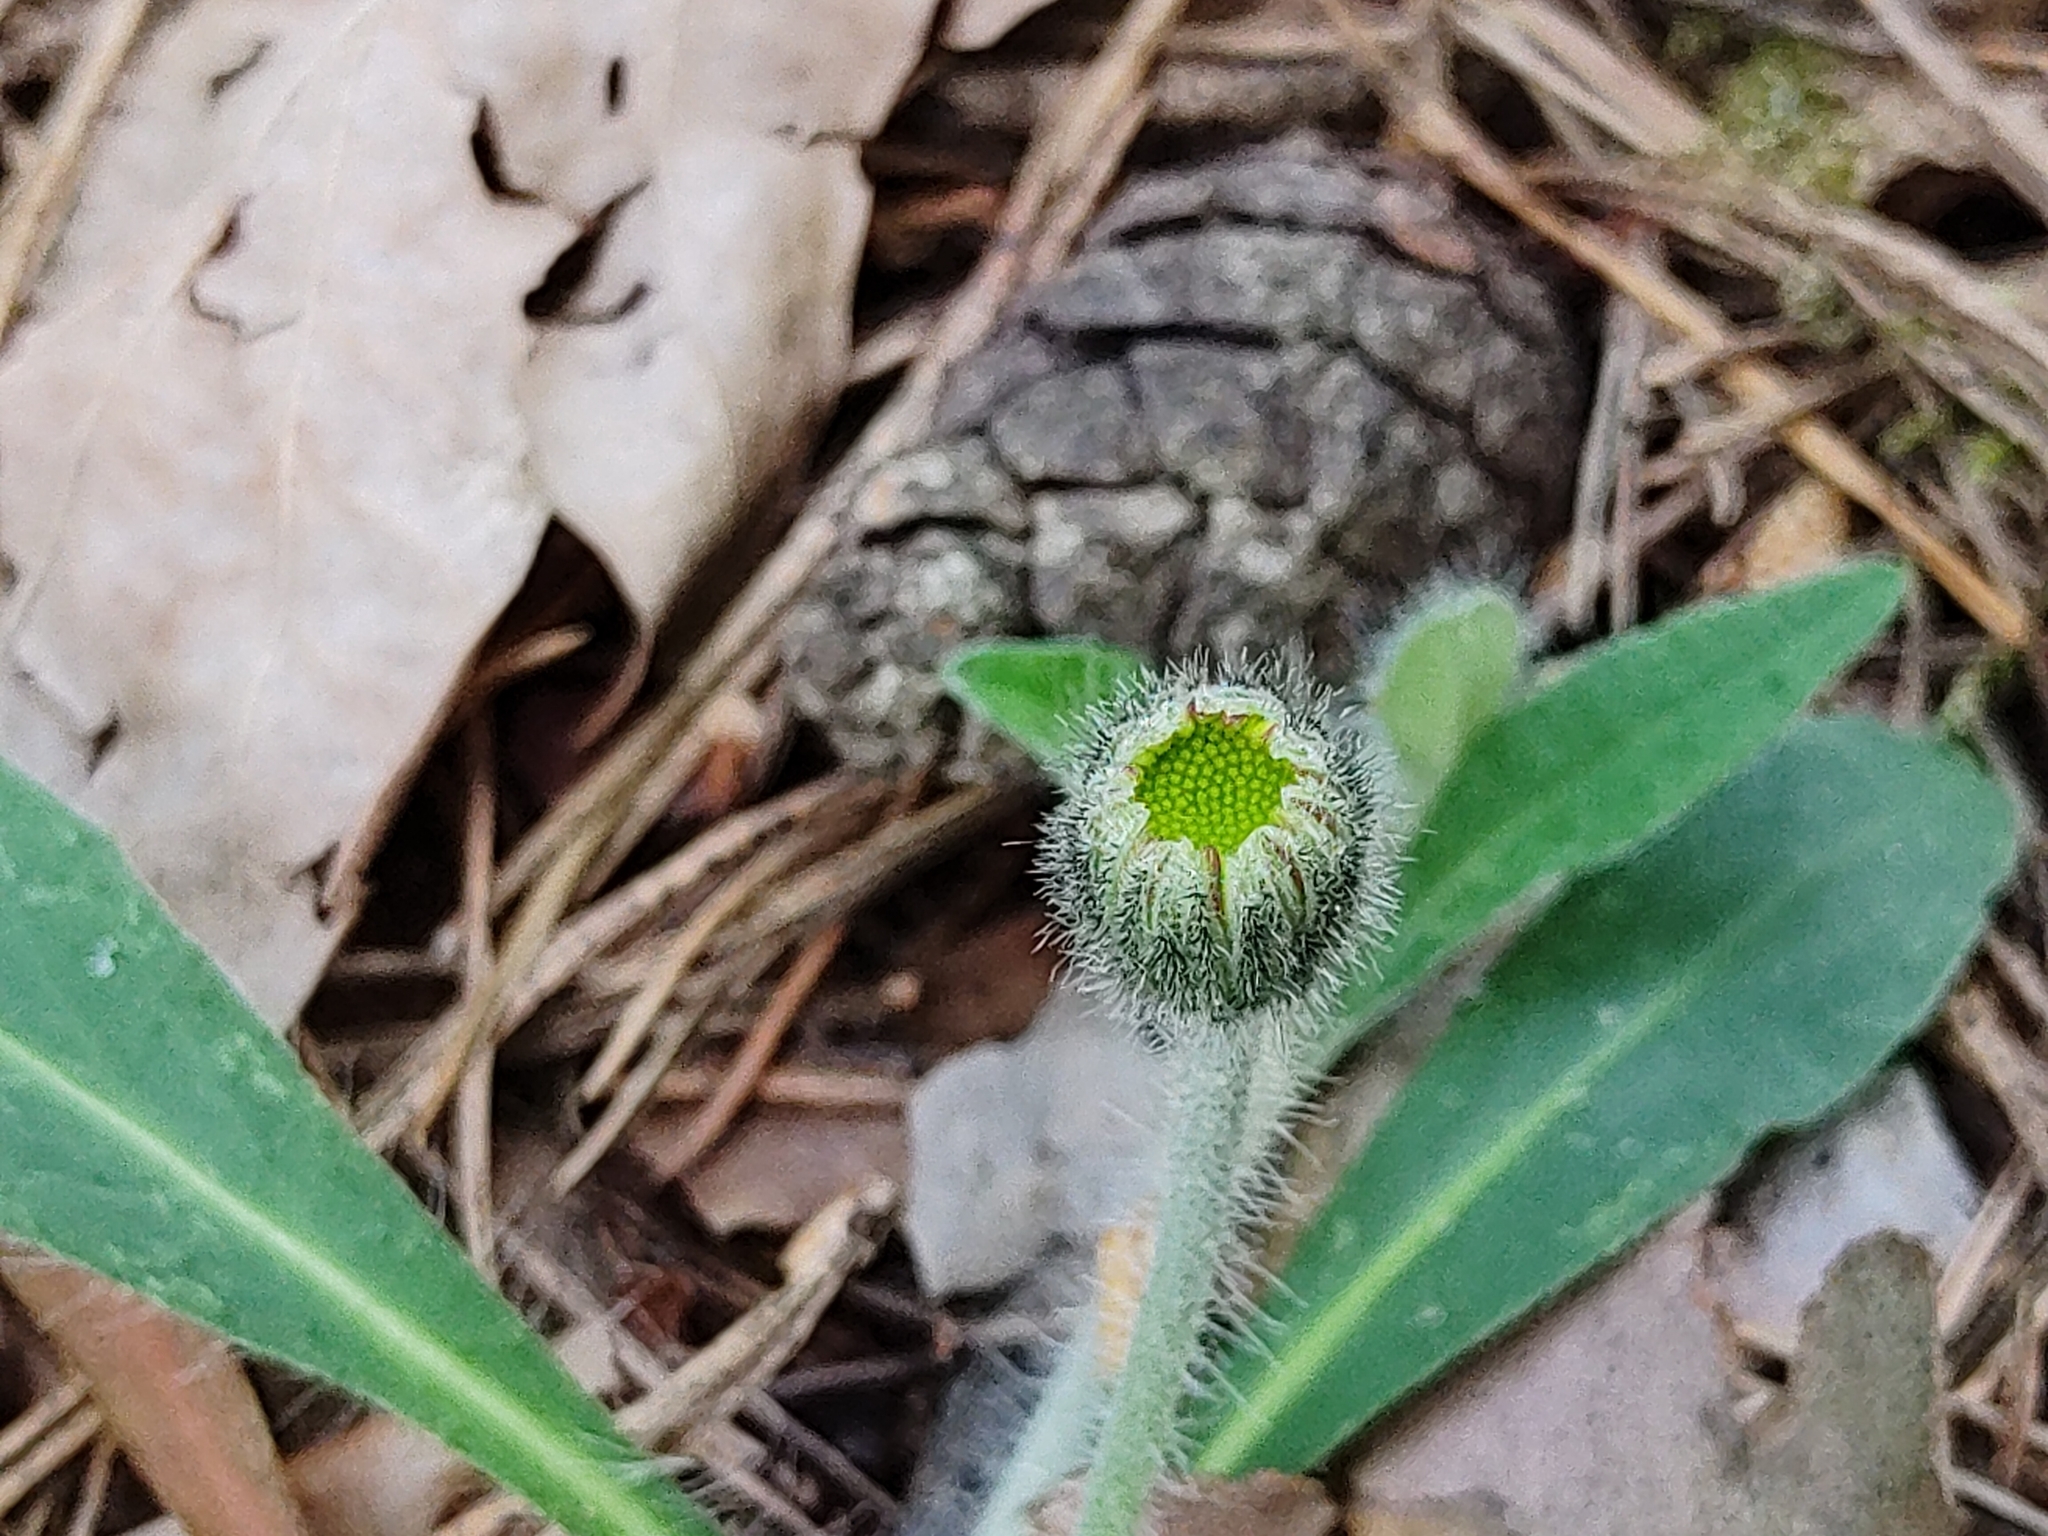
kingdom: Plantae
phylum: Tracheophyta
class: Magnoliopsida
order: Asterales
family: Asteraceae
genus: Pilosella
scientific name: Pilosella officinarum
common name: Mouse-ear hawkweed
